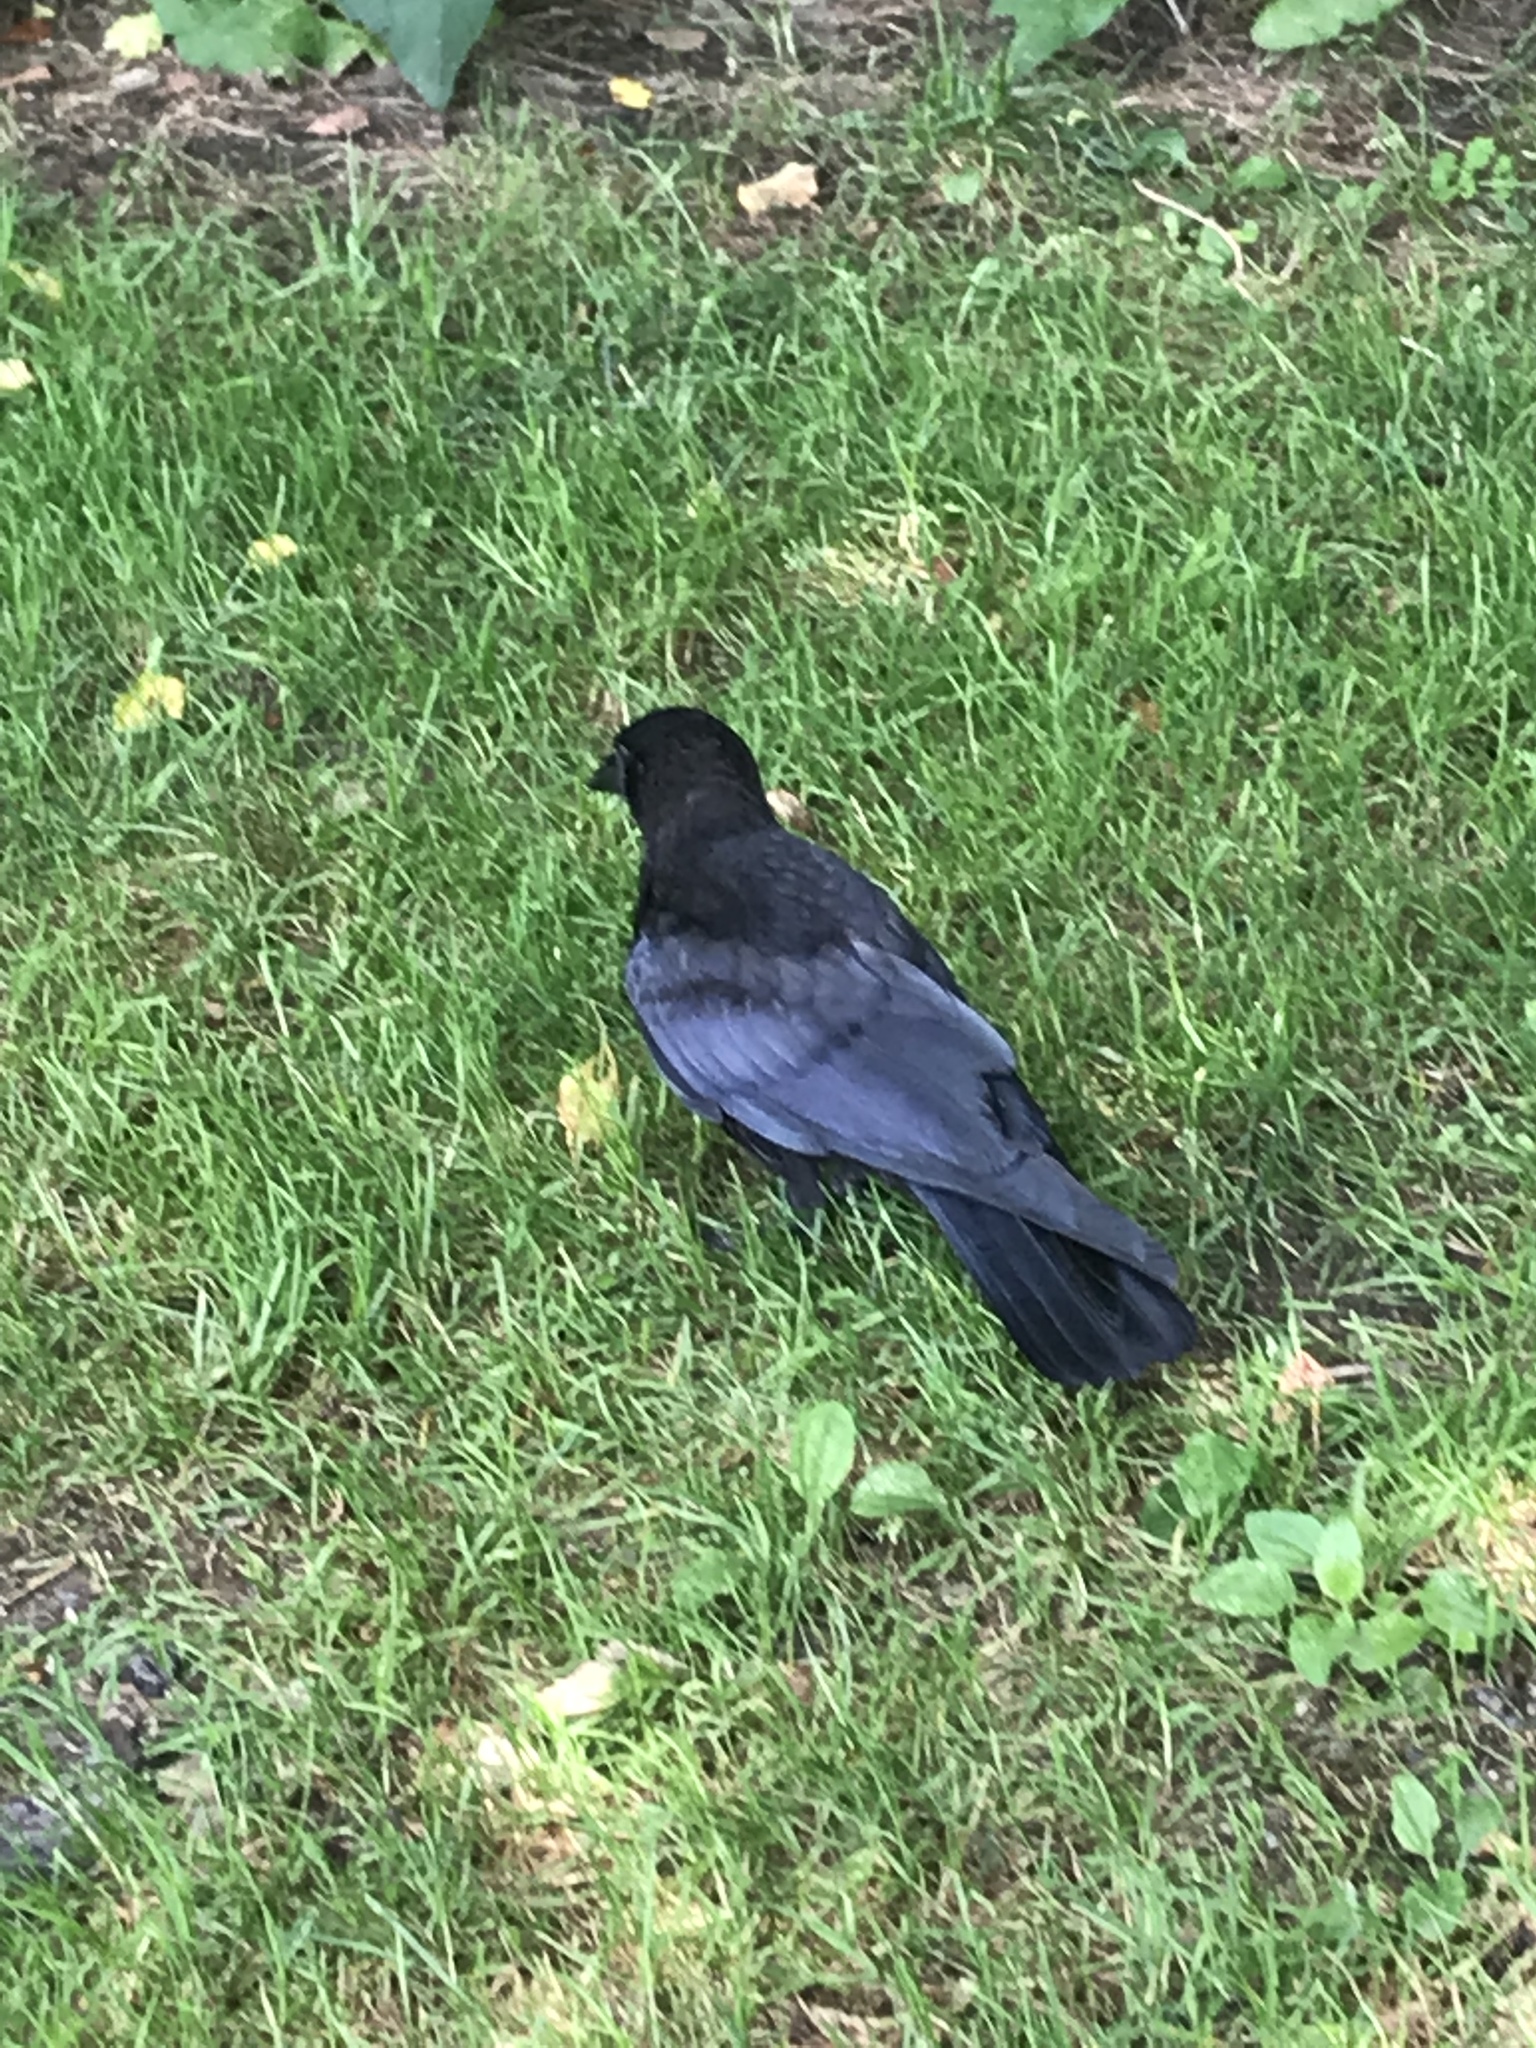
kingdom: Animalia
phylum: Chordata
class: Aves
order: Passeriformes
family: Corvidae
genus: Corvus
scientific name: Corvus brachyrhynchos
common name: American crow
